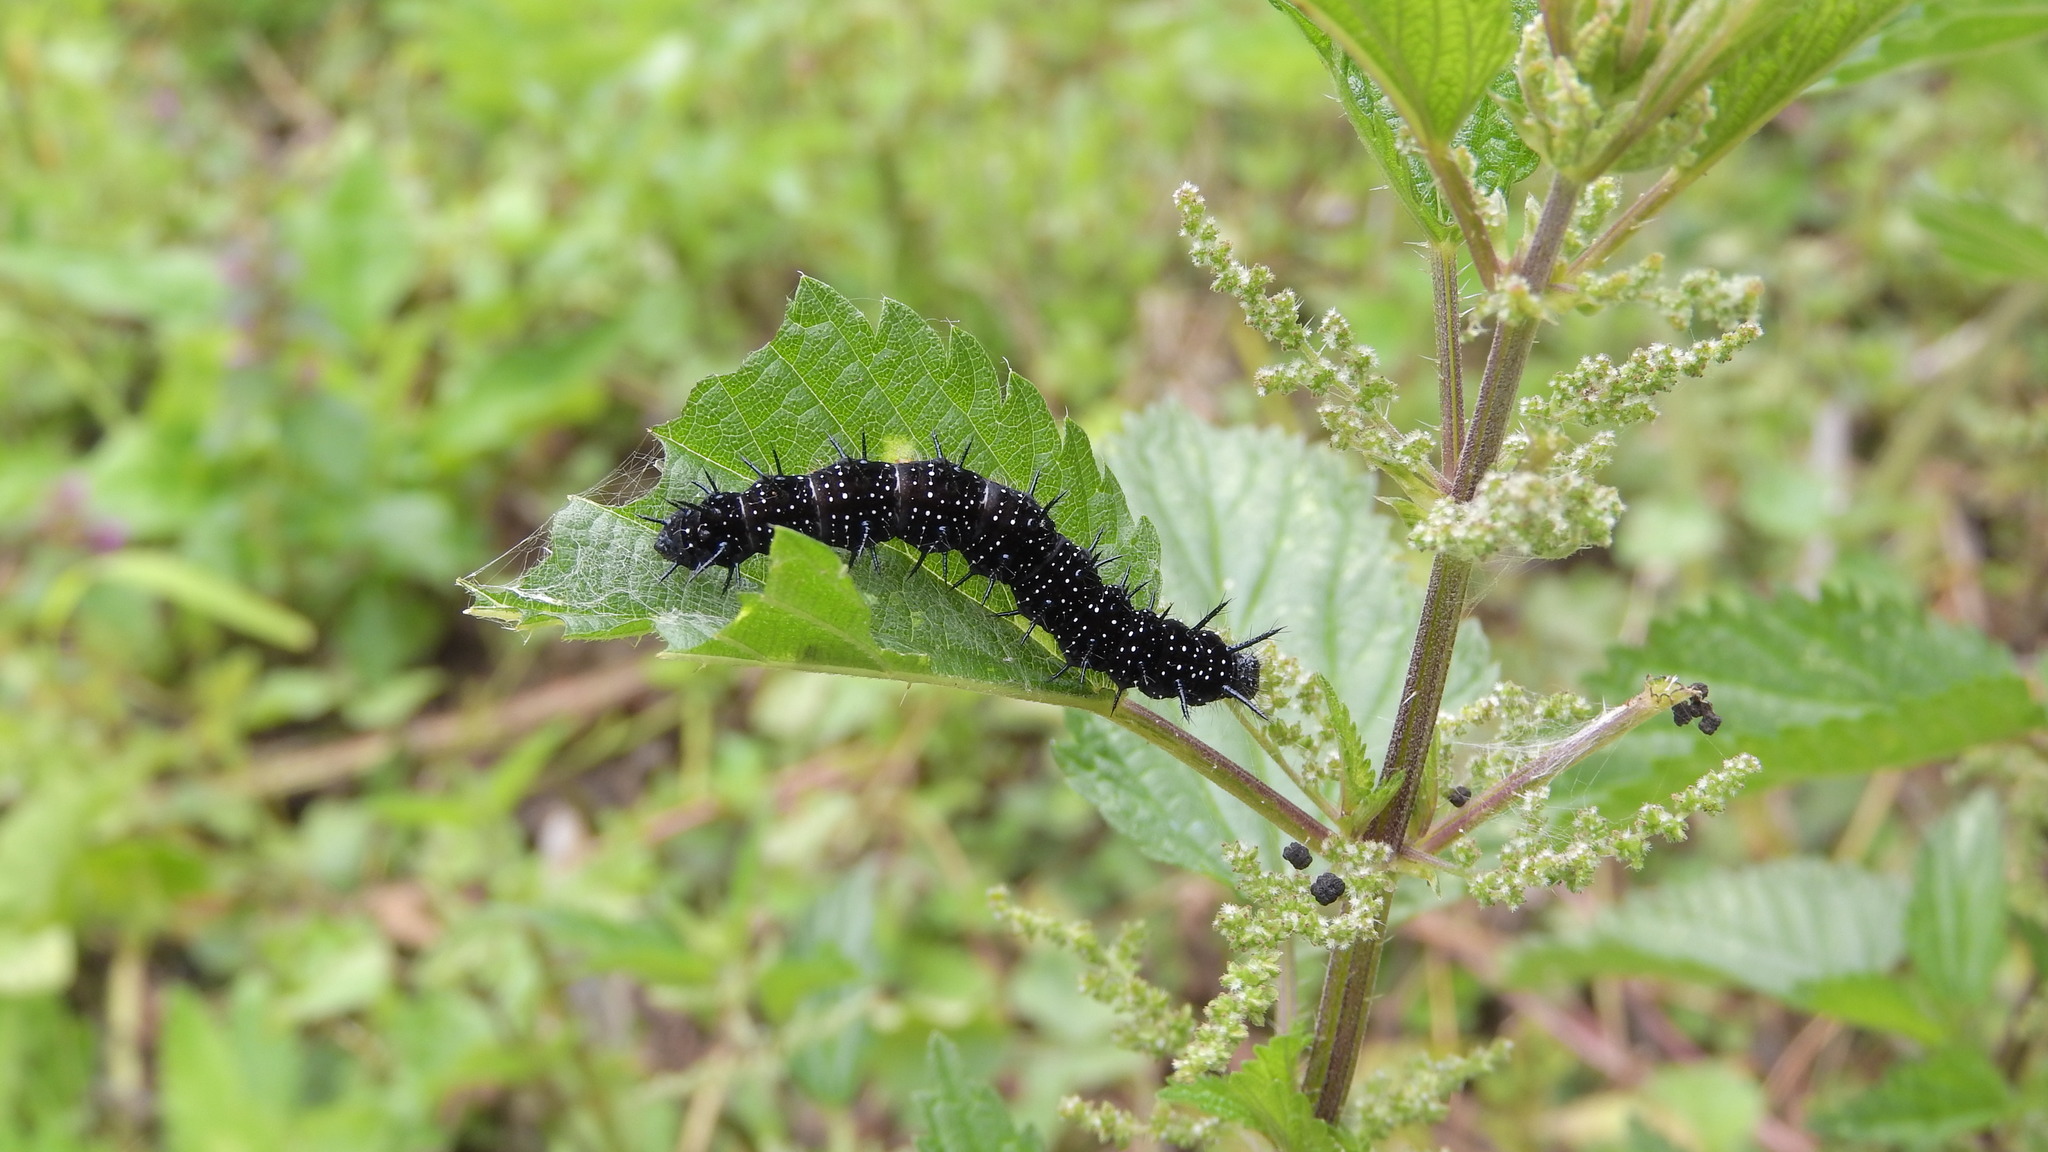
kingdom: Animalia
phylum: Arthropoda
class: Insecta
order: Lepidoptera
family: Nymphalidae
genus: Aglais
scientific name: Aglais io
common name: Peacock
